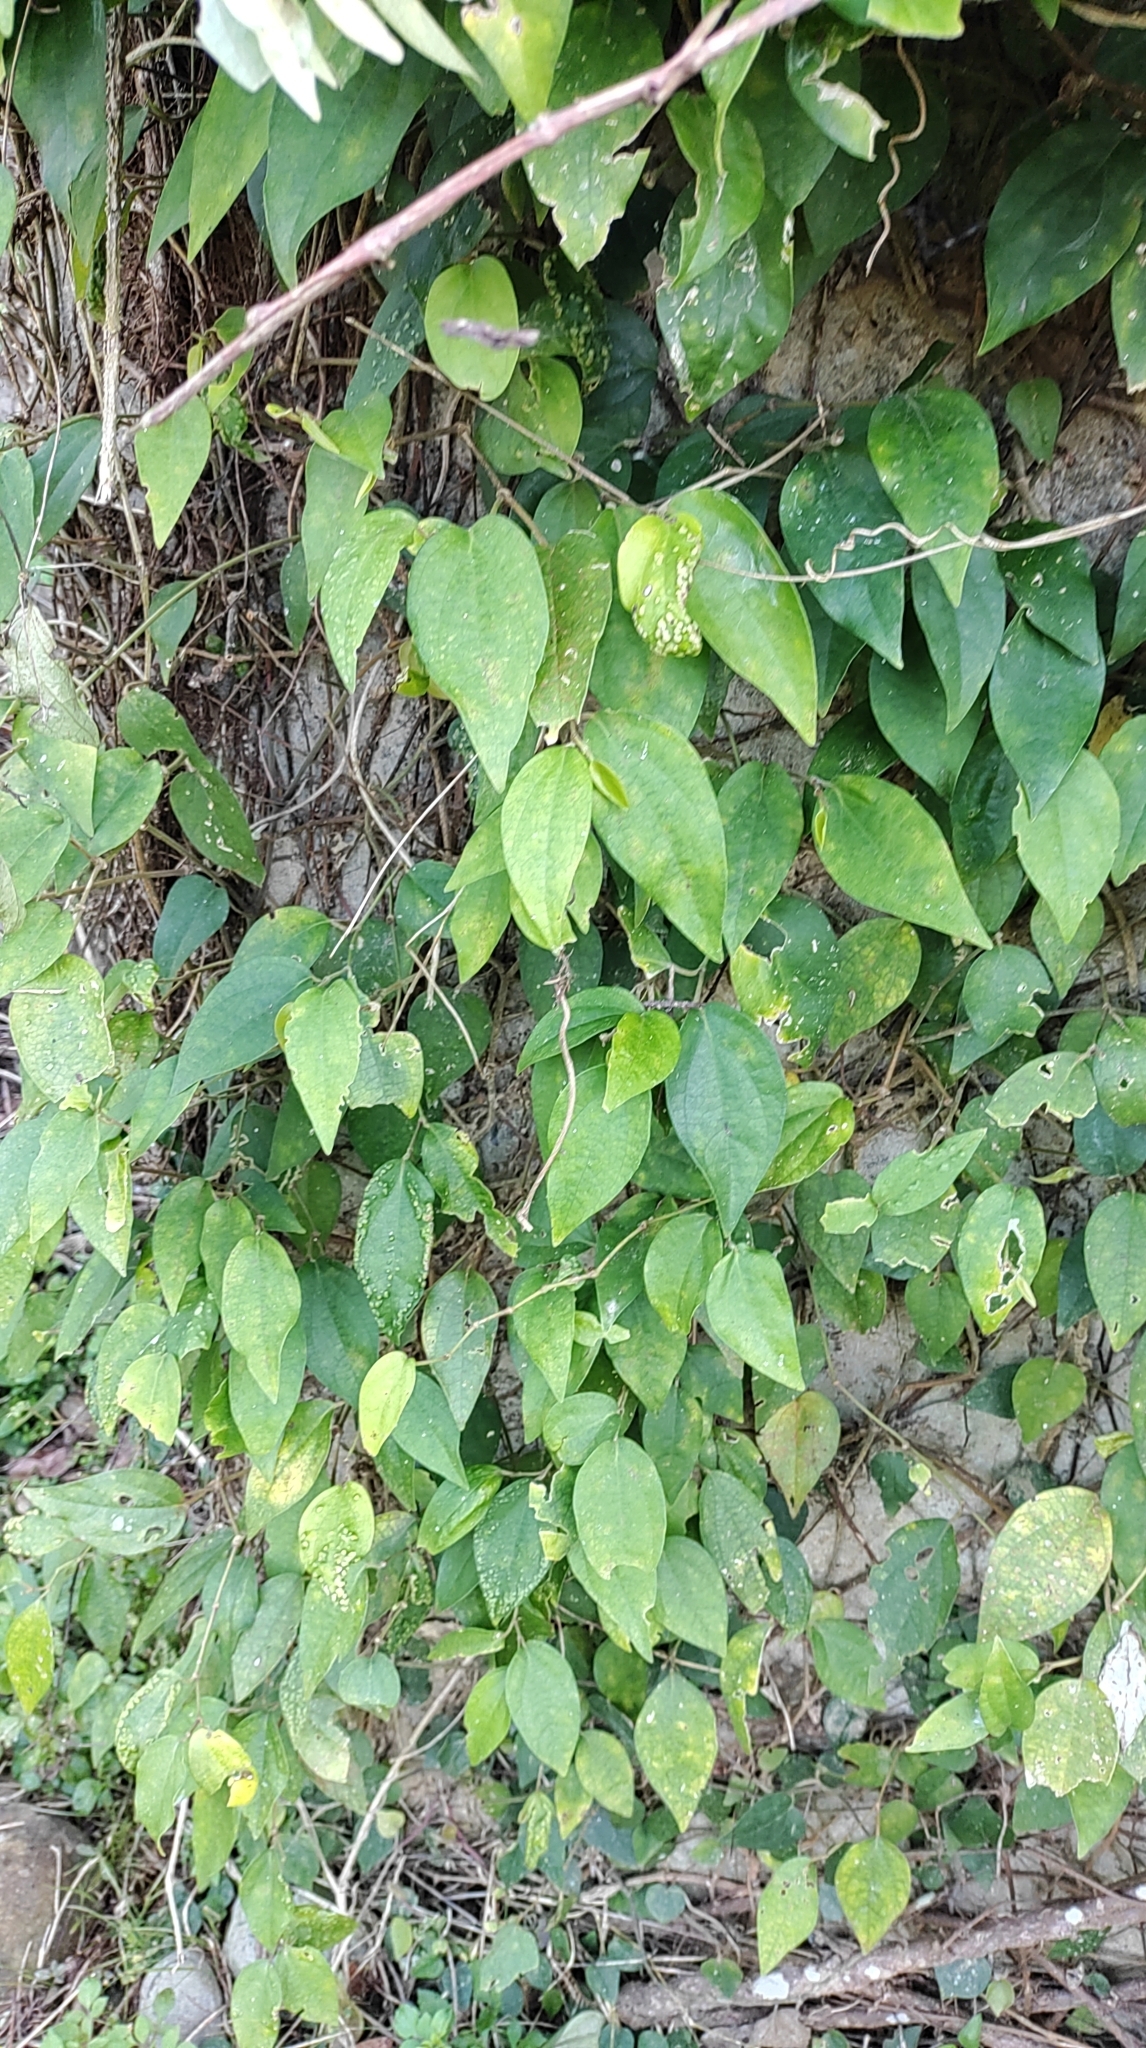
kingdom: Plantae
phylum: Tracheophyta
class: Magnoliopsida
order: Piperales
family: Piperaceae
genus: Piper
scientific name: Piper kadsura
